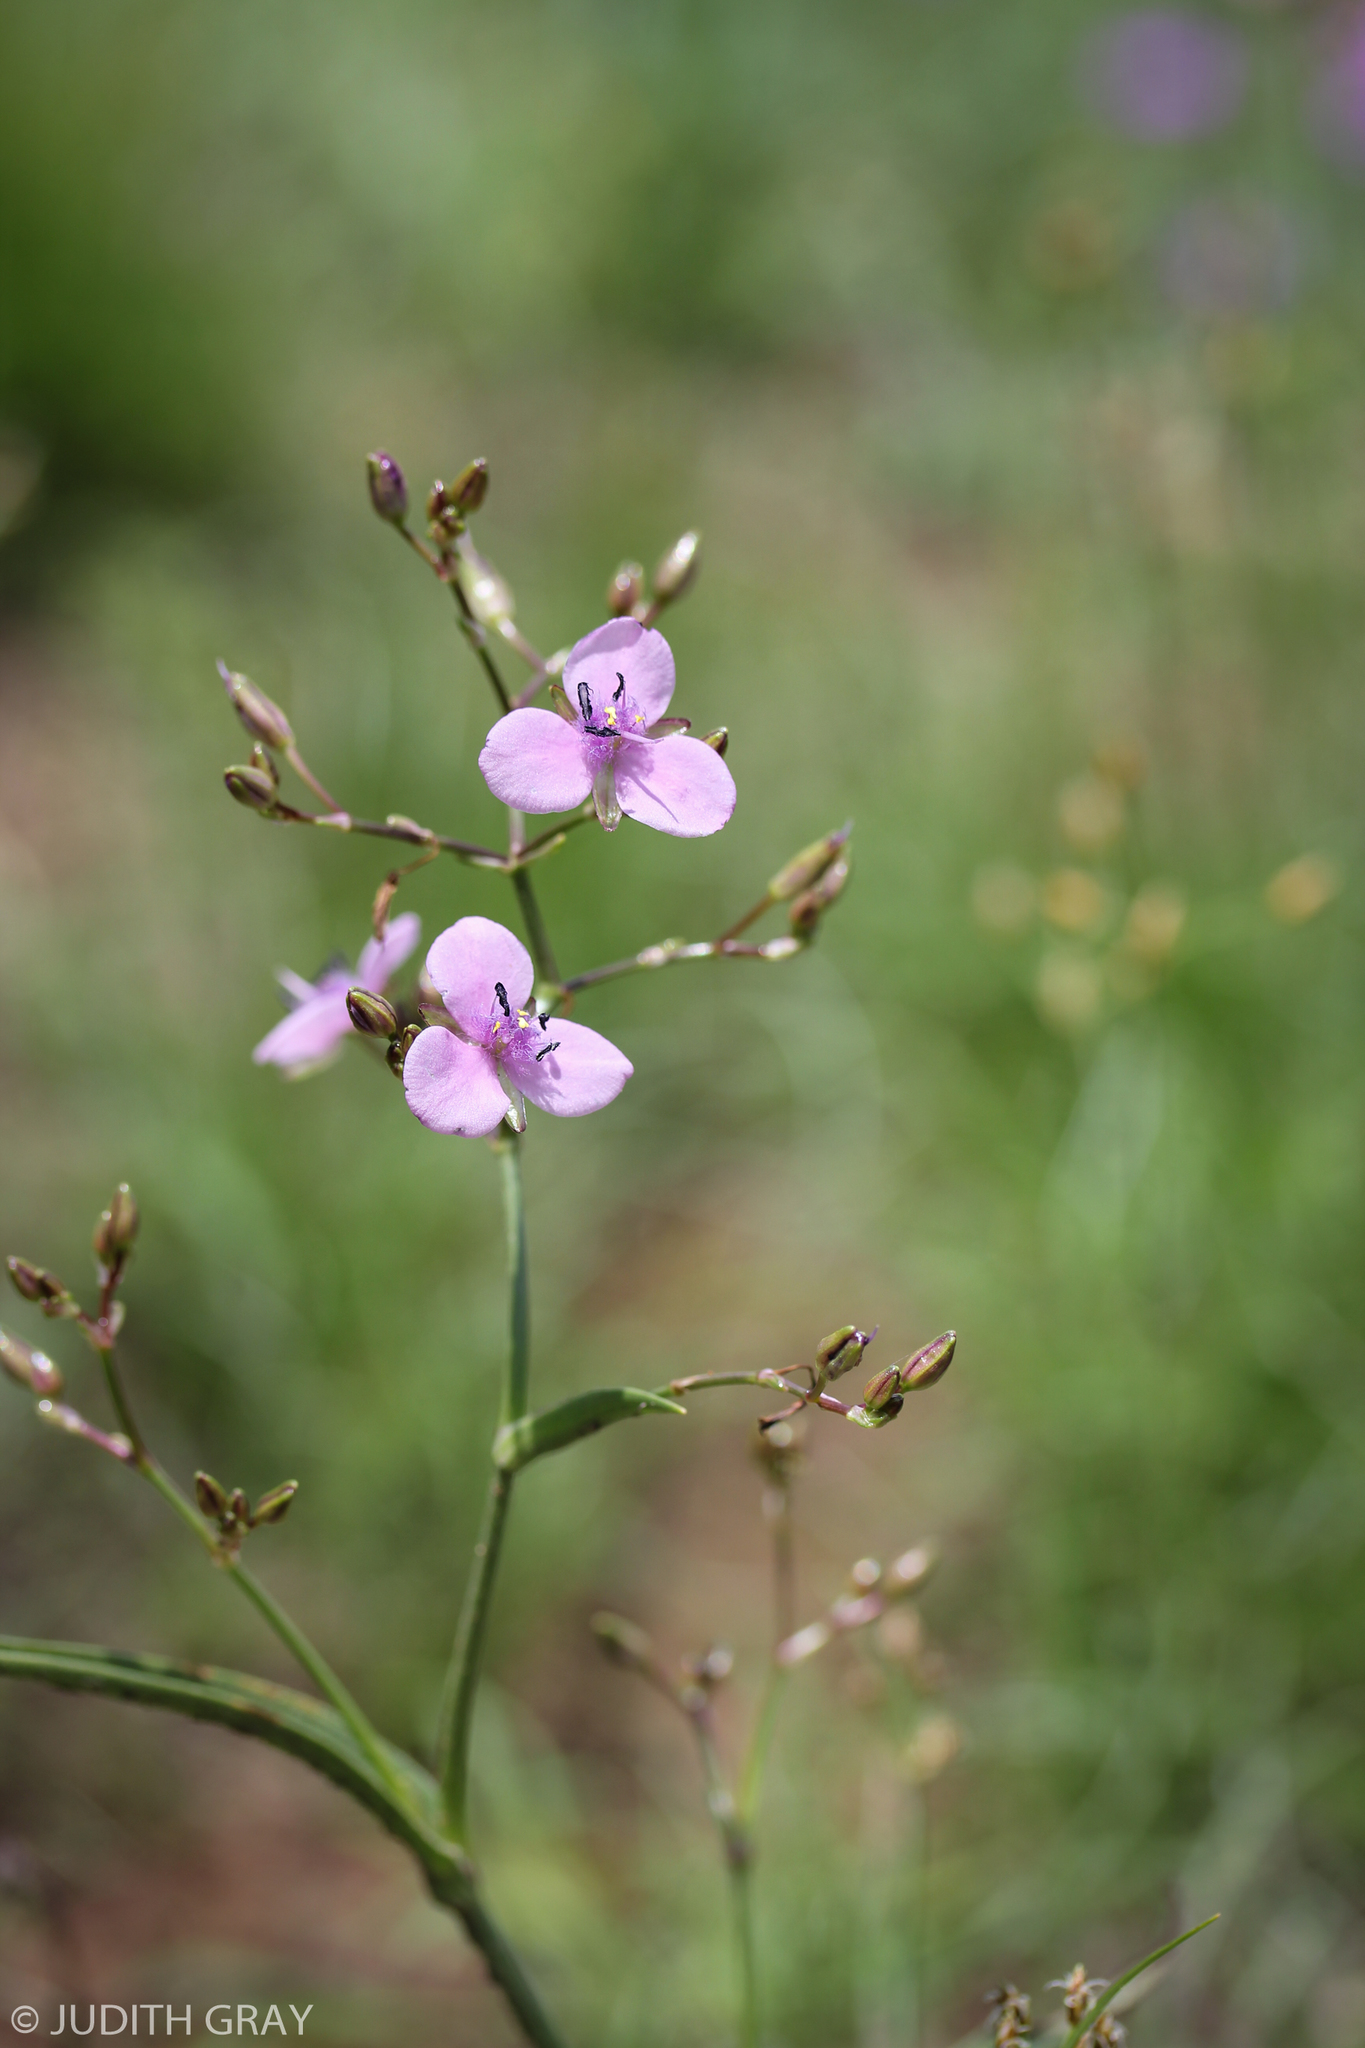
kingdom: Plantae
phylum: Tracheophyta
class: Liliopsida
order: Commelinales
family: Commelinaceae
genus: Murdannia
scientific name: Murdannia graminea
